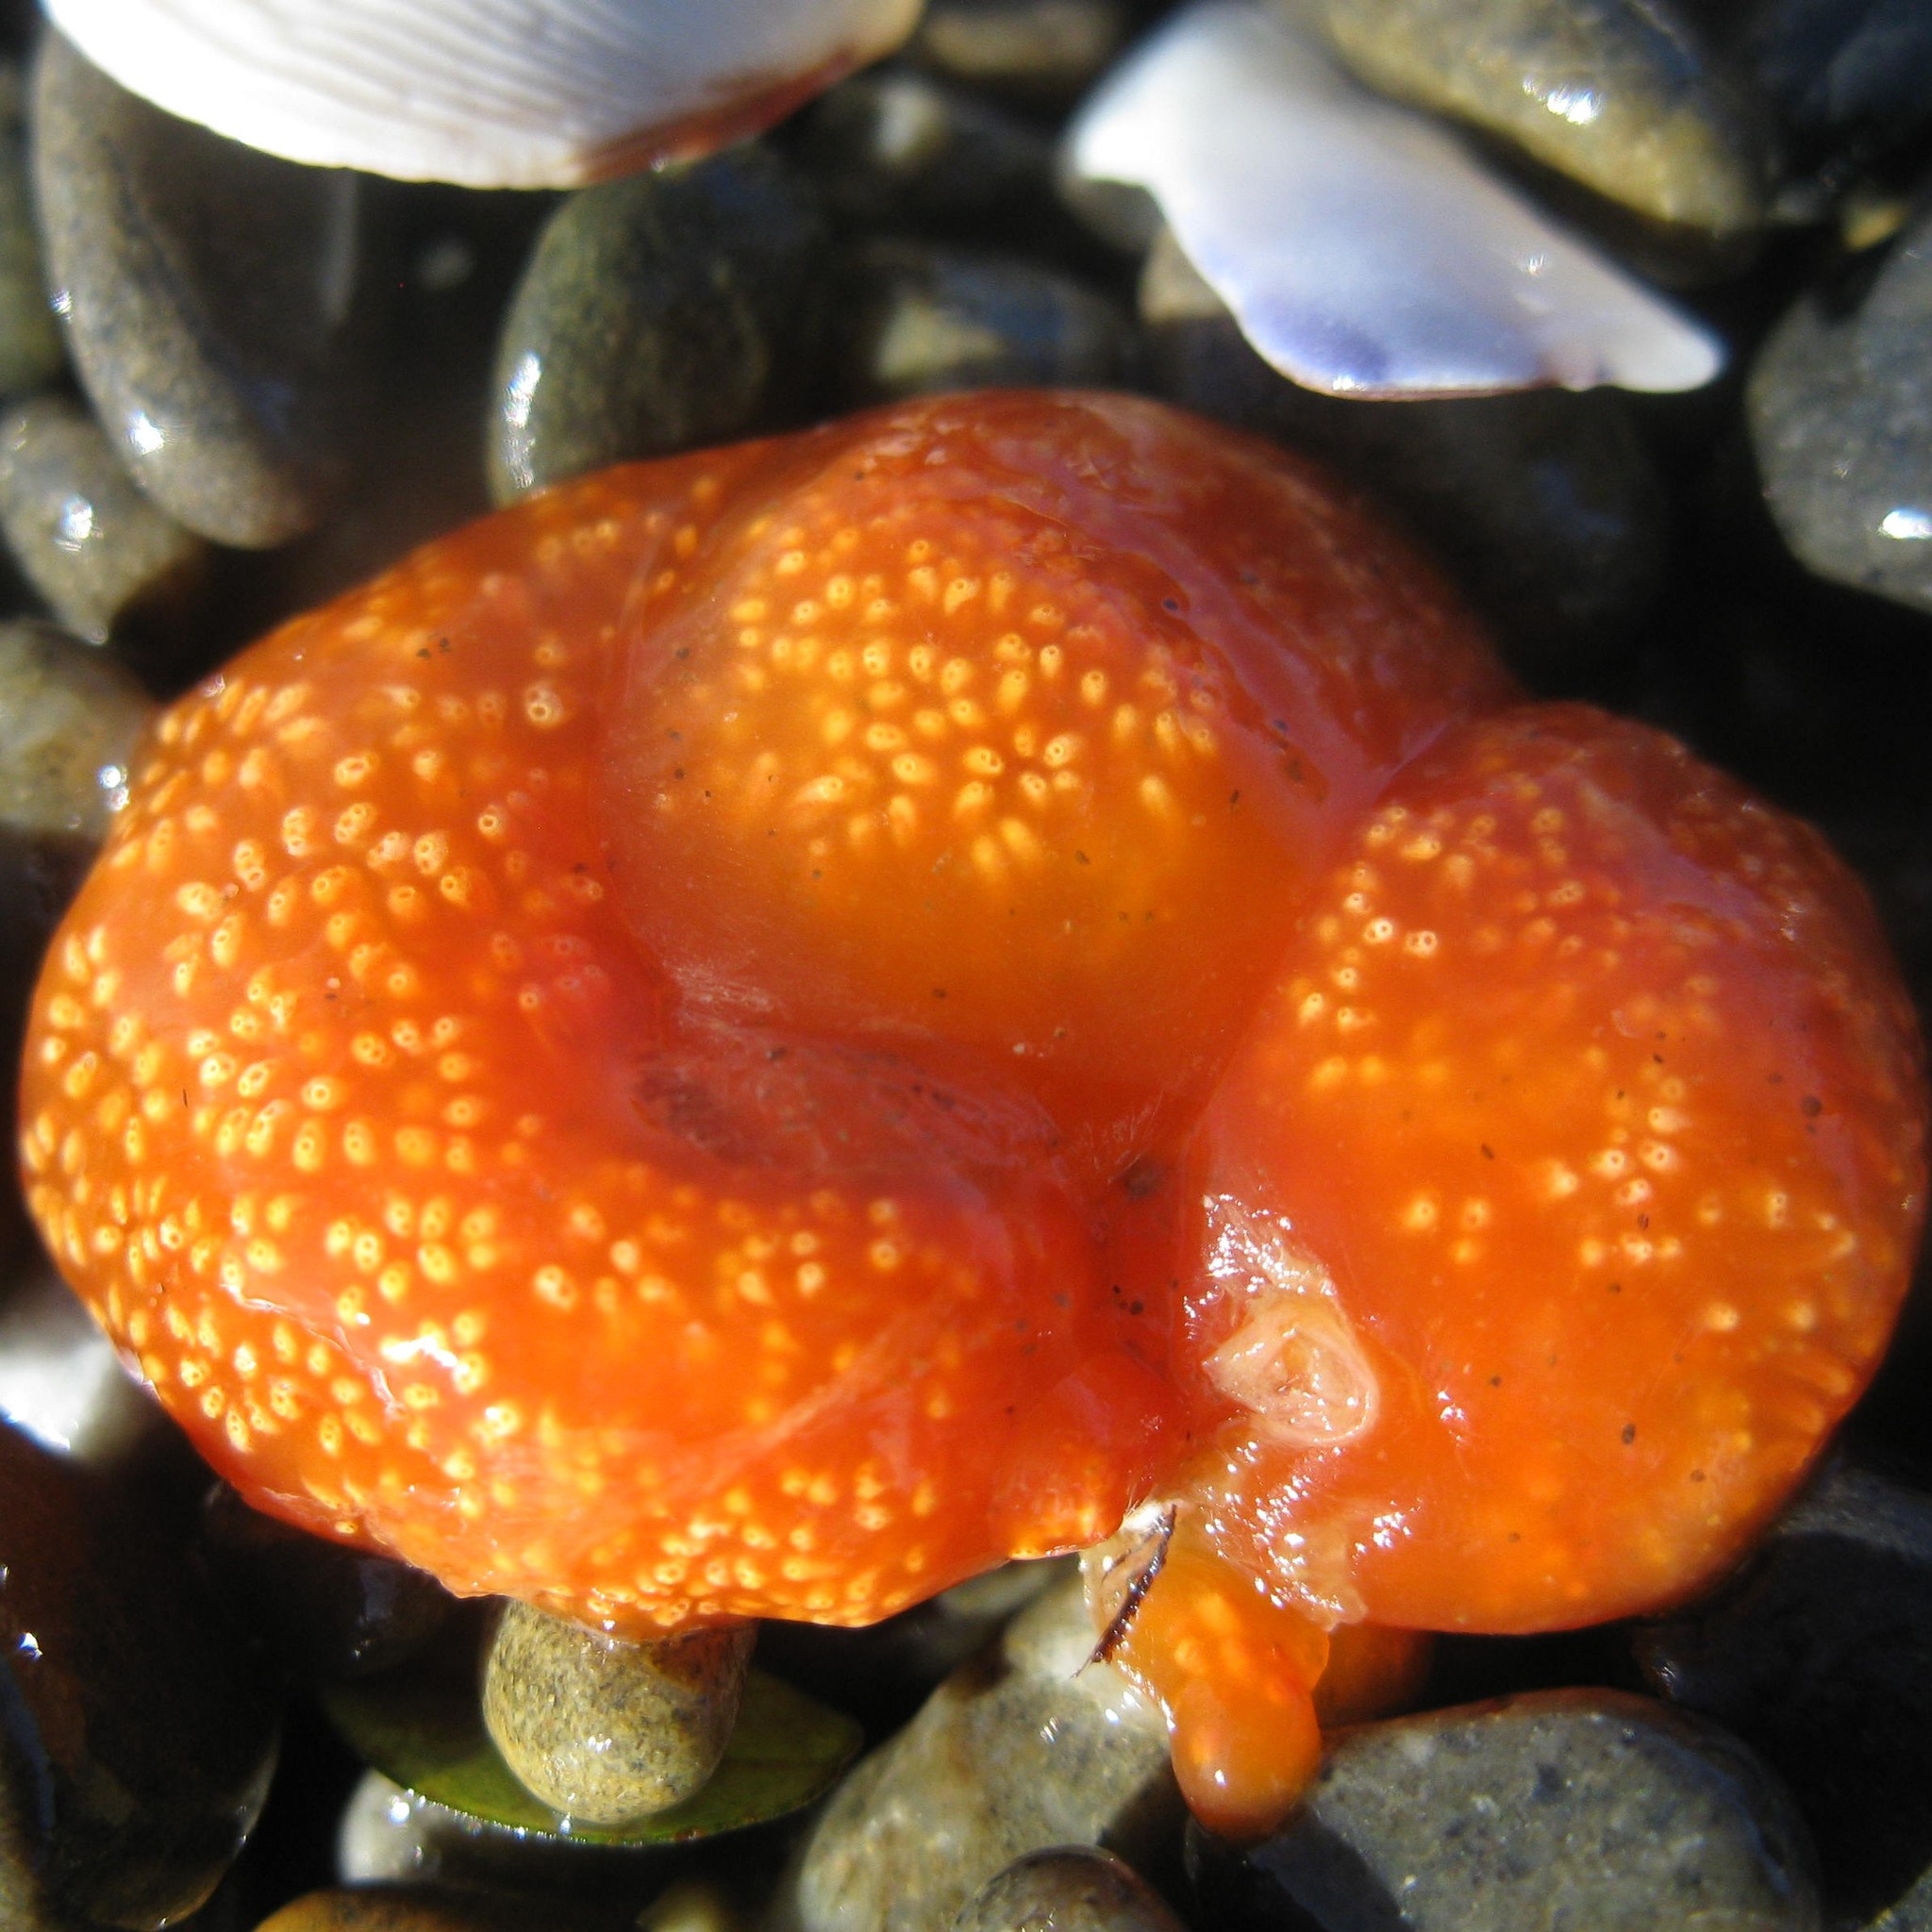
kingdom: Animalia
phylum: Chordata
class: Ascidiacea
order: Aplousobranchia
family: Polyclinidae
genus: Aplidium
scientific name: Aplidium benhami
